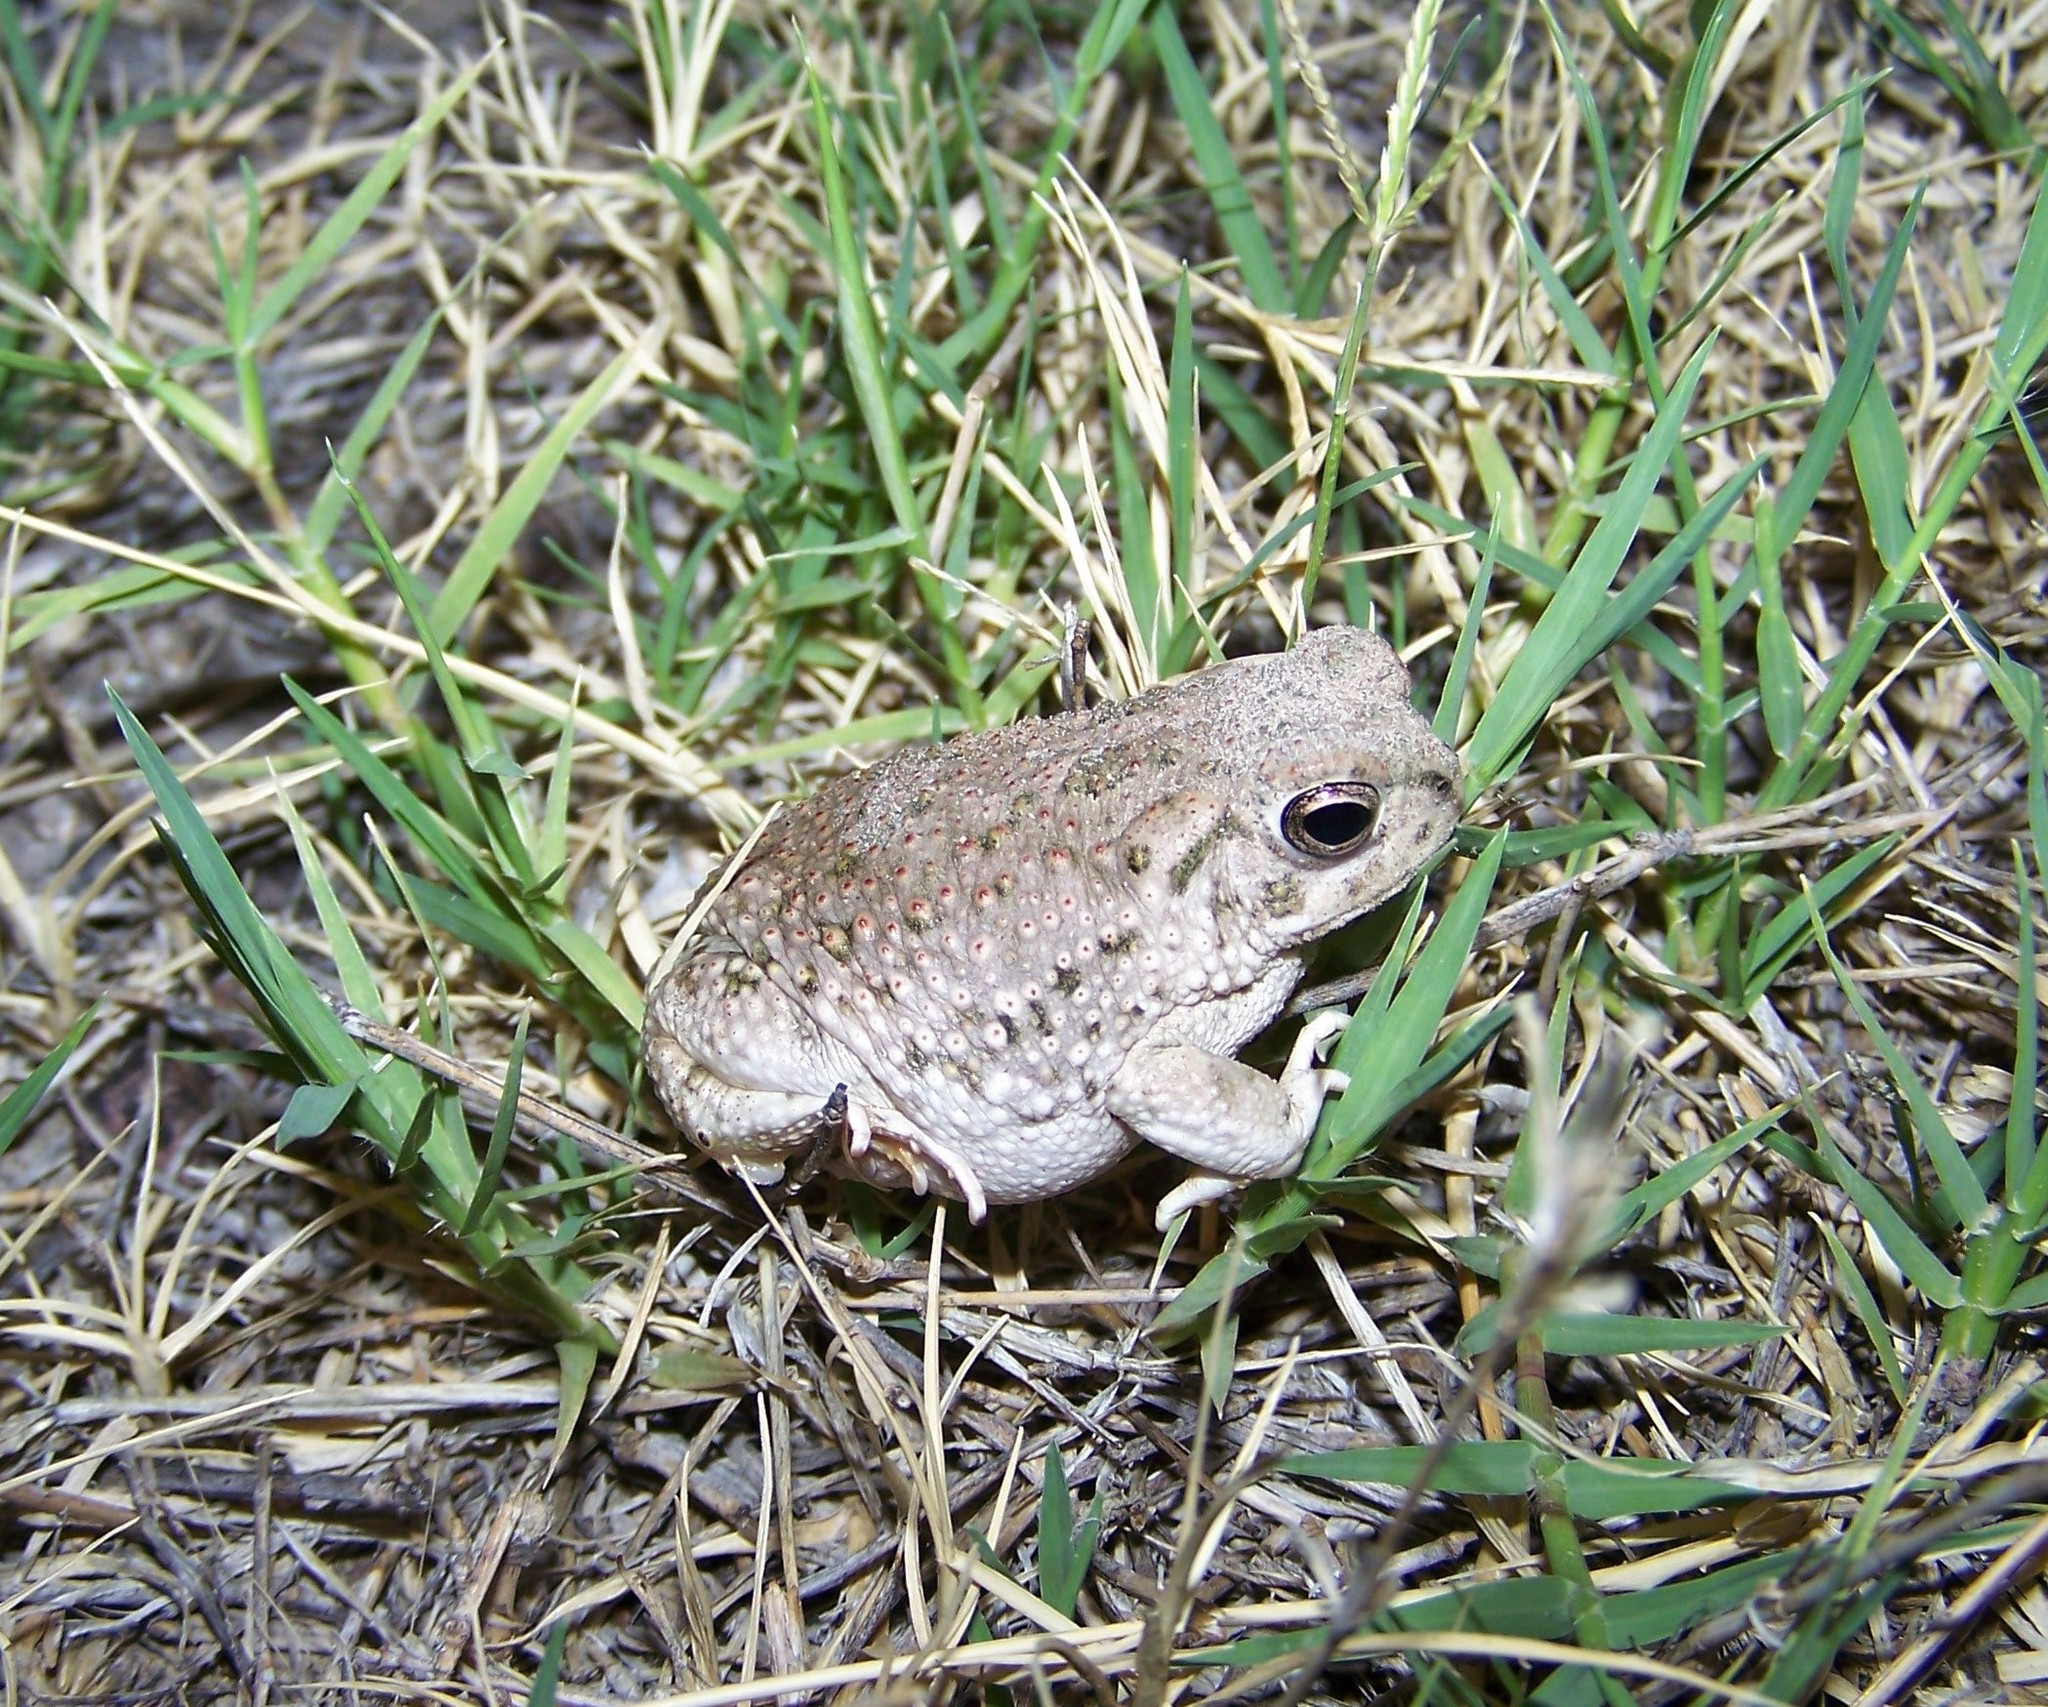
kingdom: Animalia
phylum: Chordata
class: Amphibia
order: Anura
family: Bufonidae
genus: Anaxyrus
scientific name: Anaxyrus speciosus
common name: Texas toad
